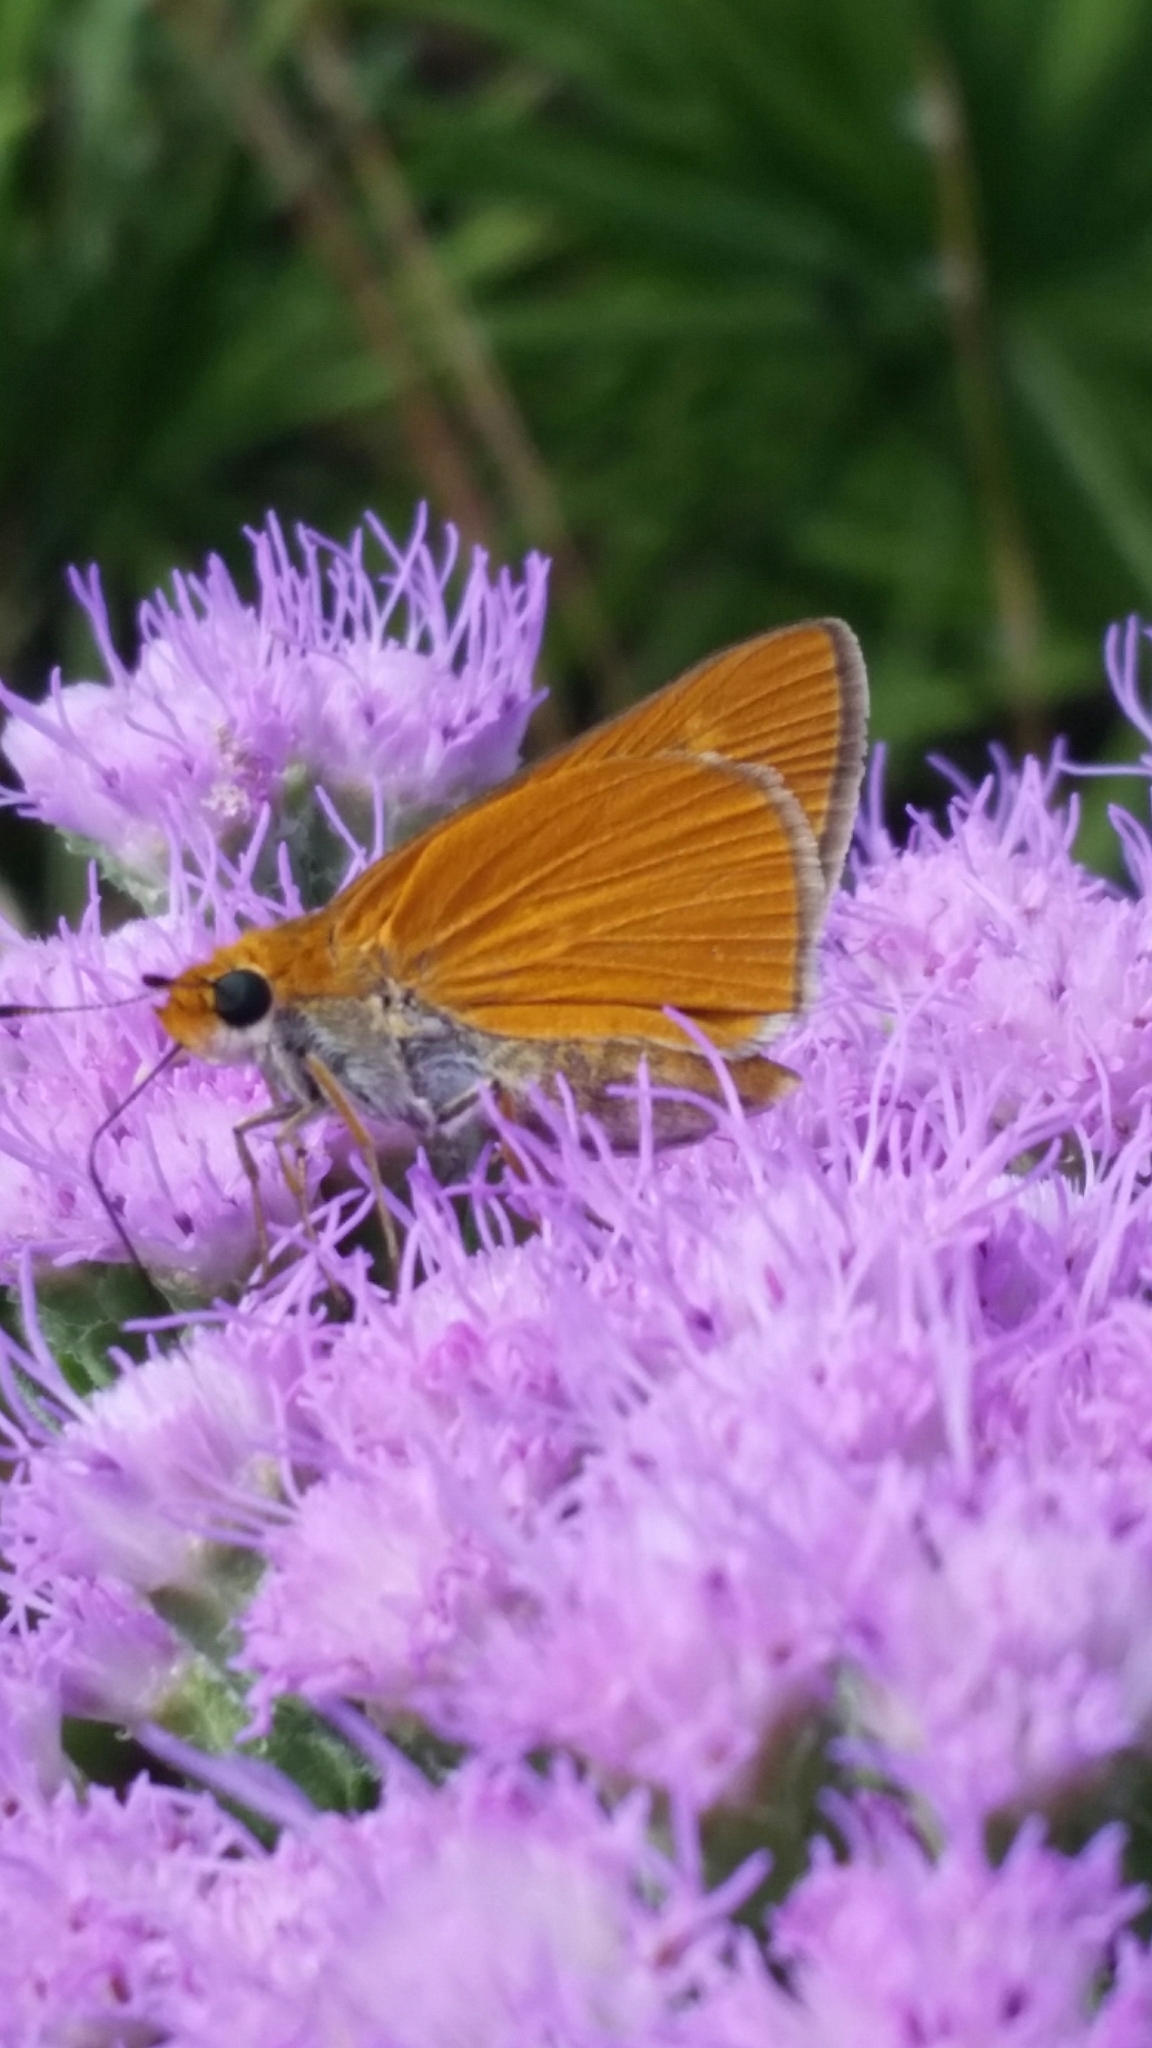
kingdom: Animalia
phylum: Arthropoda
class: Insecta
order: Lepidoptera
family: Hesperiidae
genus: Euphyes
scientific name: Euphyes arpa
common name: Palmetto skipper
